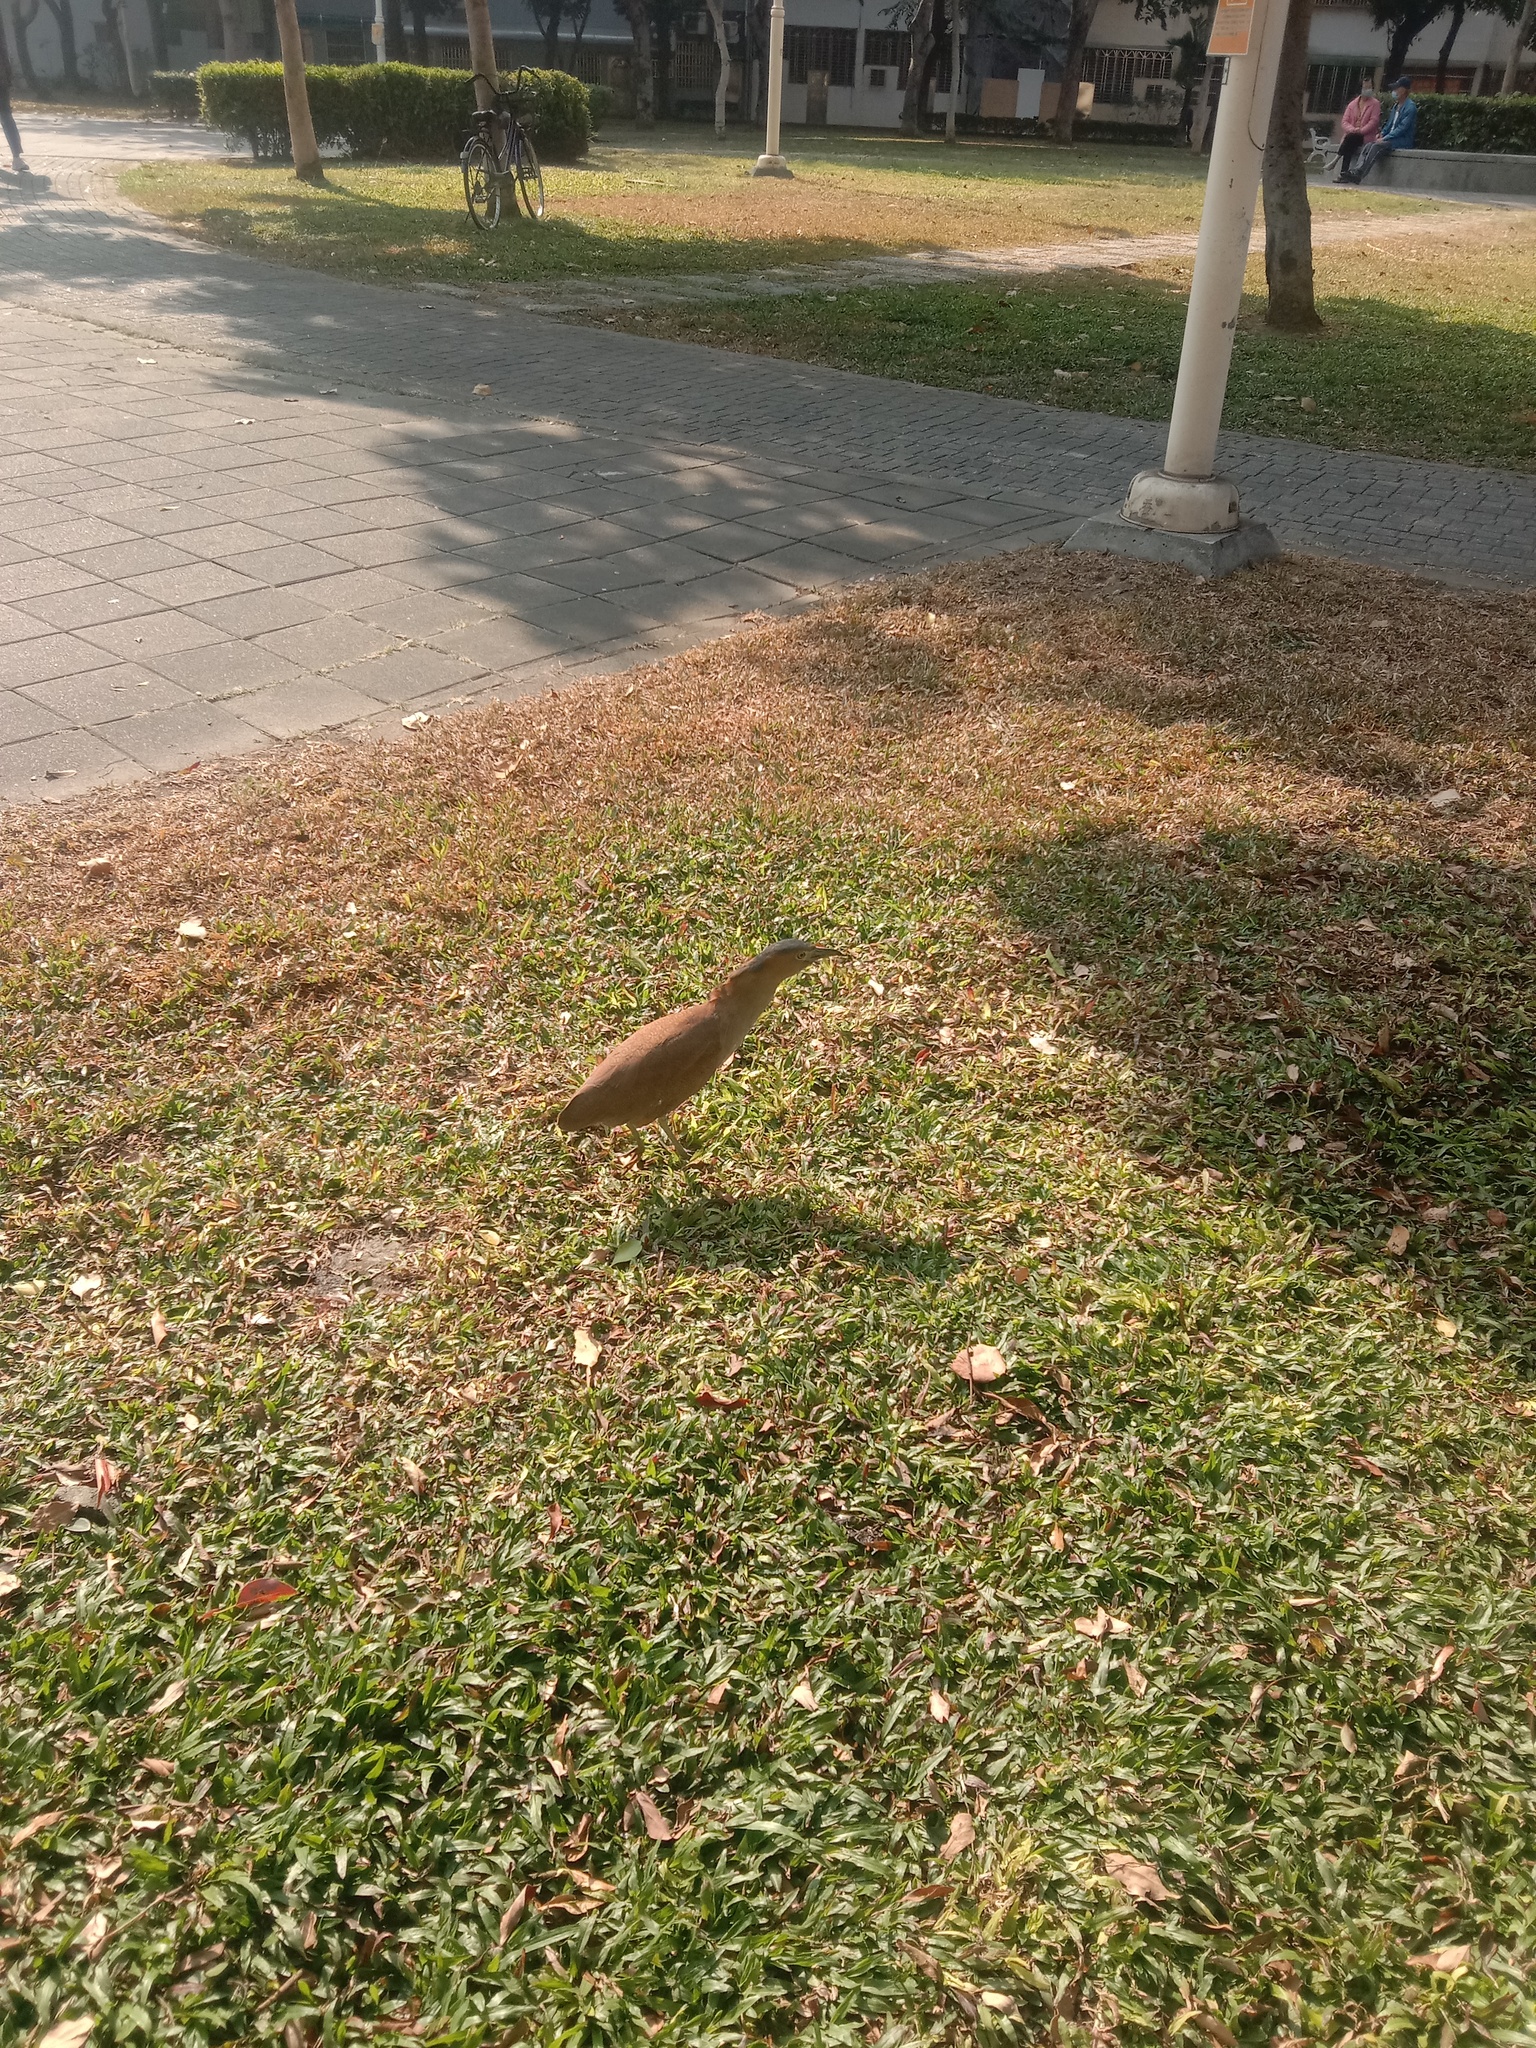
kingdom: Animalia
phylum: Chordata
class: Aves
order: Pelecaniformes
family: Ardeidae
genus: Gorsachius
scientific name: Gorsachius melanolophus
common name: Malayan night heron
